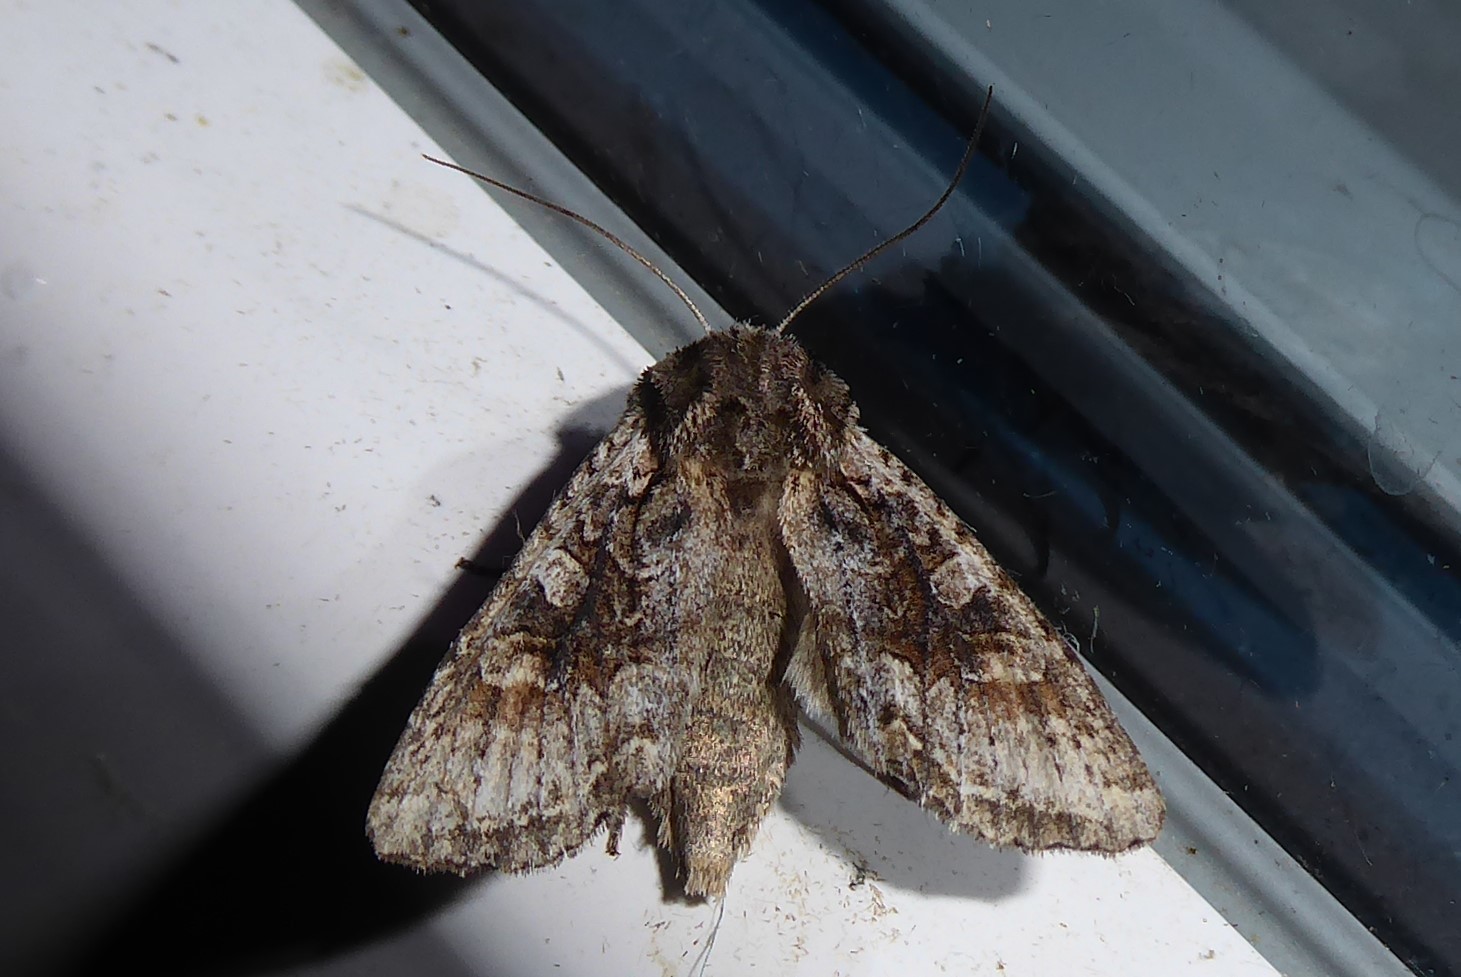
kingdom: Animalia
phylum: Arthropoda
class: Insecta
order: Lepidoptera
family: Noctuidae
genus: Ichneutica
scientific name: Ichneutica mutans
